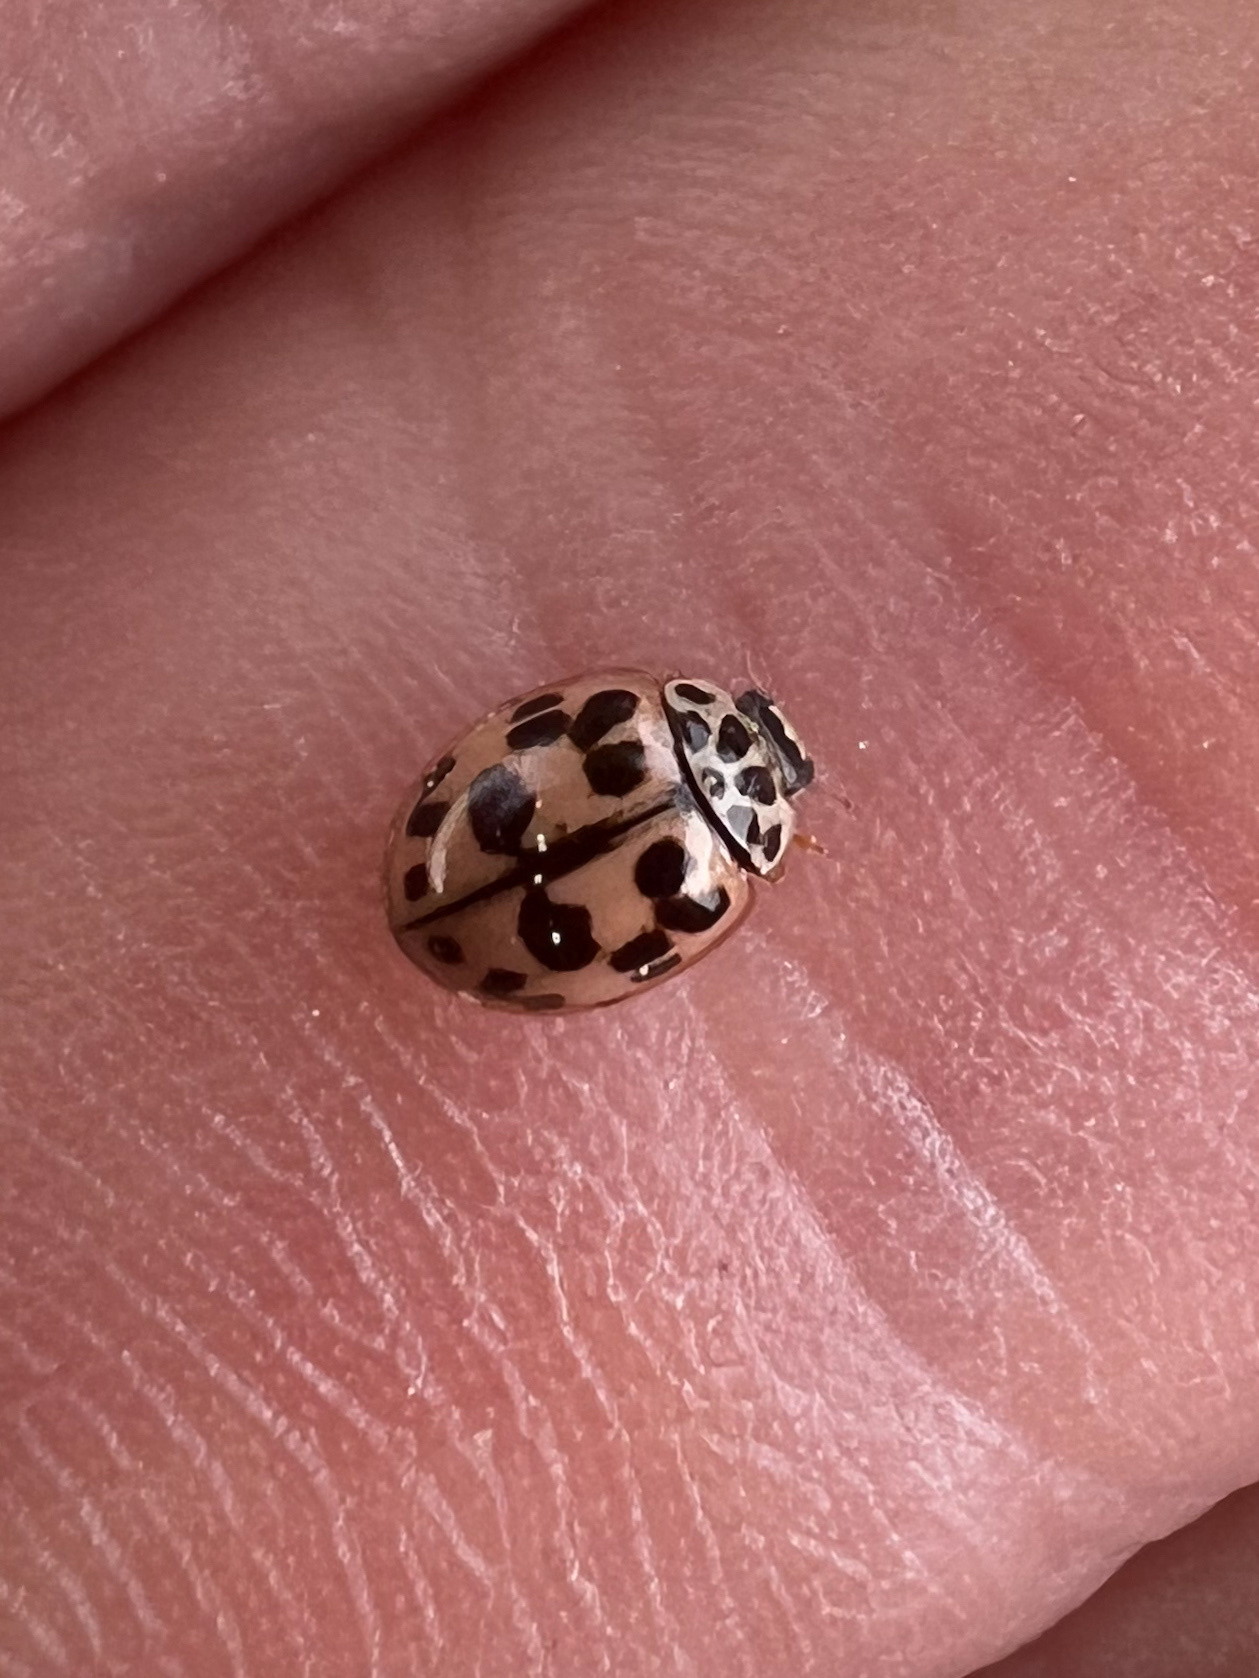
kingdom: Animalia
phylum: Arthropoda
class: Insecta
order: Coleoptera
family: Coccinellidae
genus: Oenopia
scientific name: Oenopia conglobata
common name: Ladybird beetle
